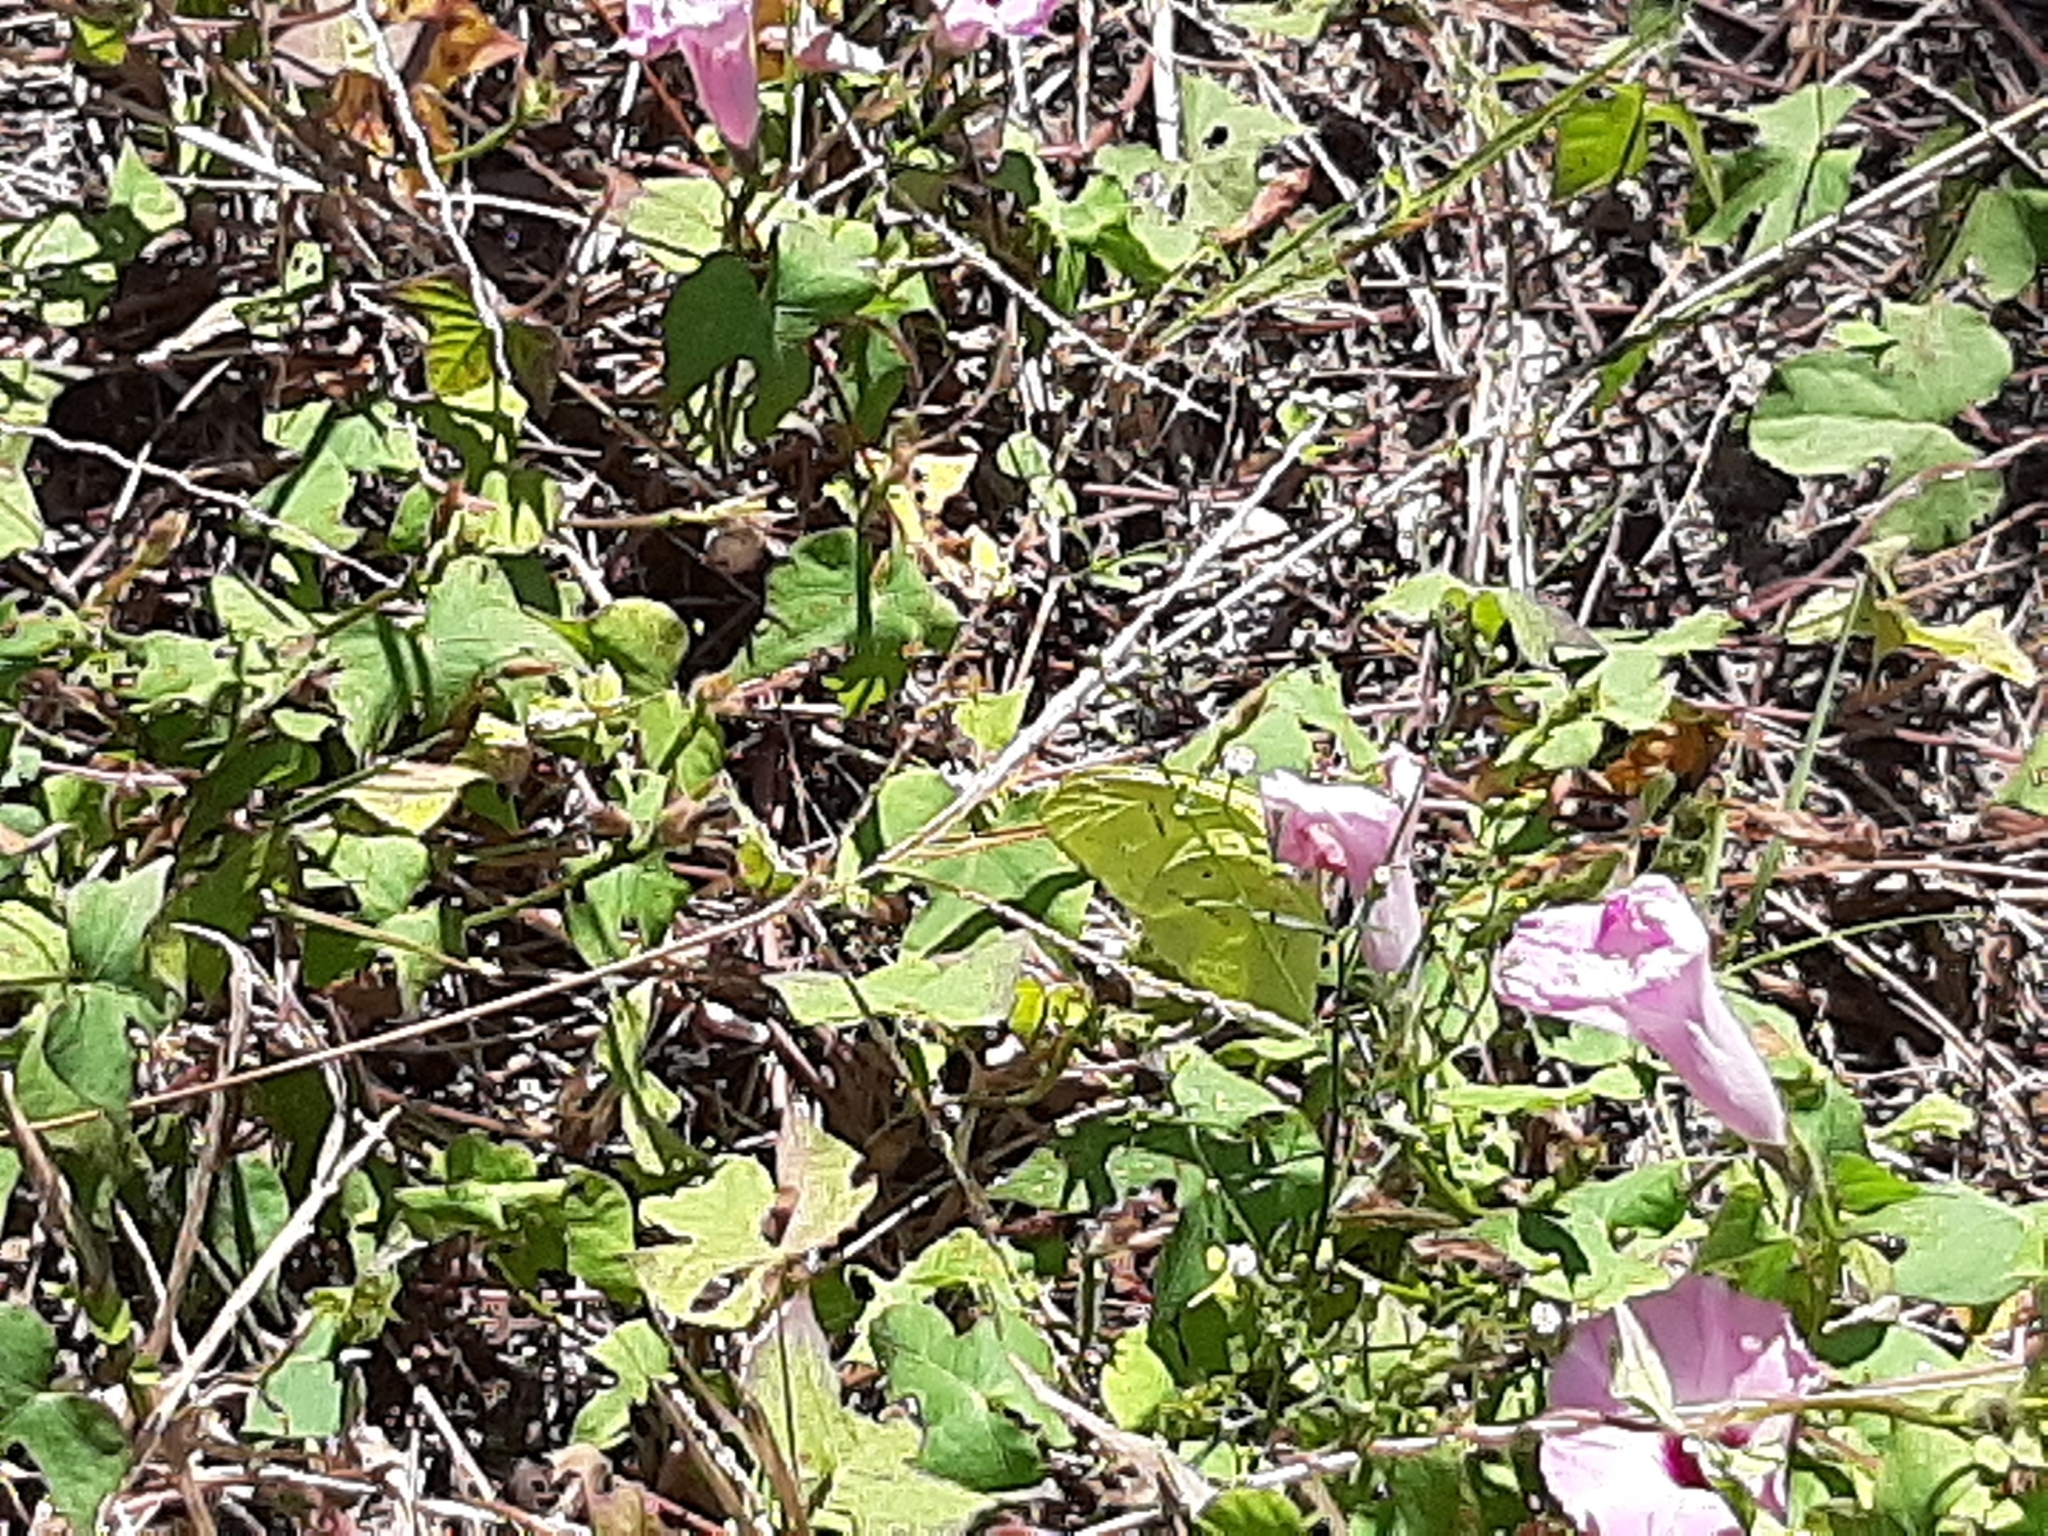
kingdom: Animalia
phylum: Arthropoda
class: Insecta
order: Lepidoptera
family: Pieridae
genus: Phoebis
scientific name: Phoebis sennae
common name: Cloudless sulphur
